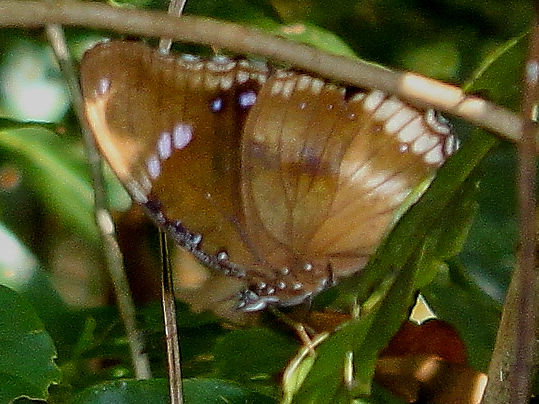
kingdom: Animalia
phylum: Arthropoda
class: Insecta
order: Lepidoptera
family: Nymphalidae
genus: Hypolimnas
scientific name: Hypolimnas bolina
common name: Great eggfly
